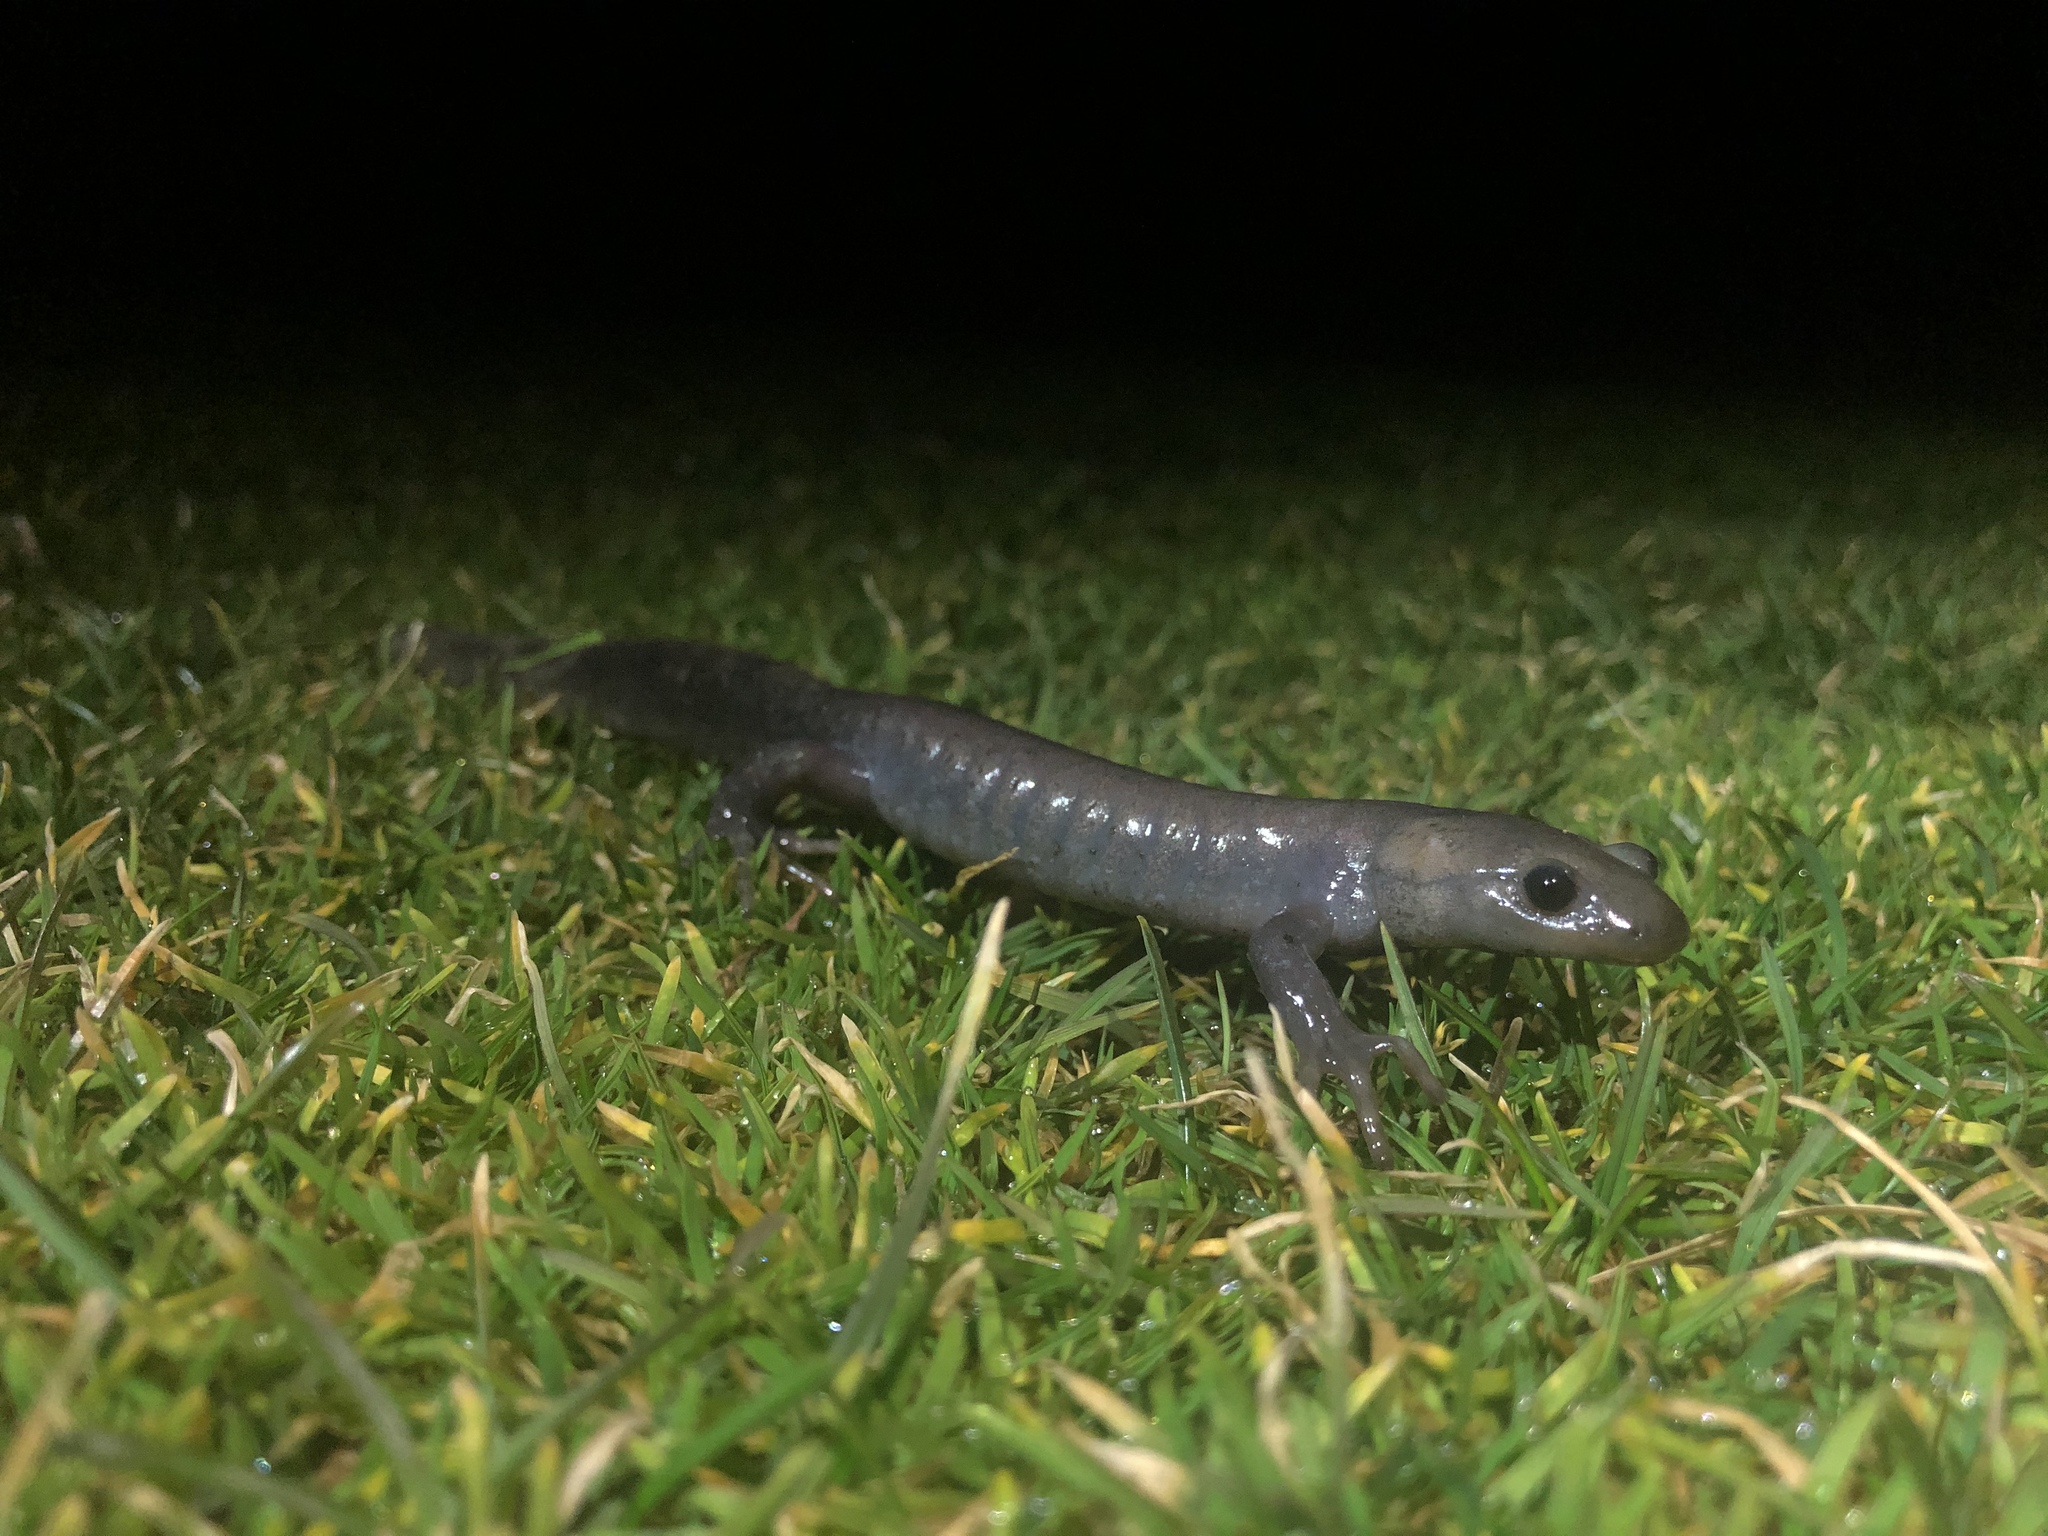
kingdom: Animalia
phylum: Chordata
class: Amphibia
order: Caudata
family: Ambystomatidae
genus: Ambystoma
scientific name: Ambystoma jeffersonianum
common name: Jefferson salamander
